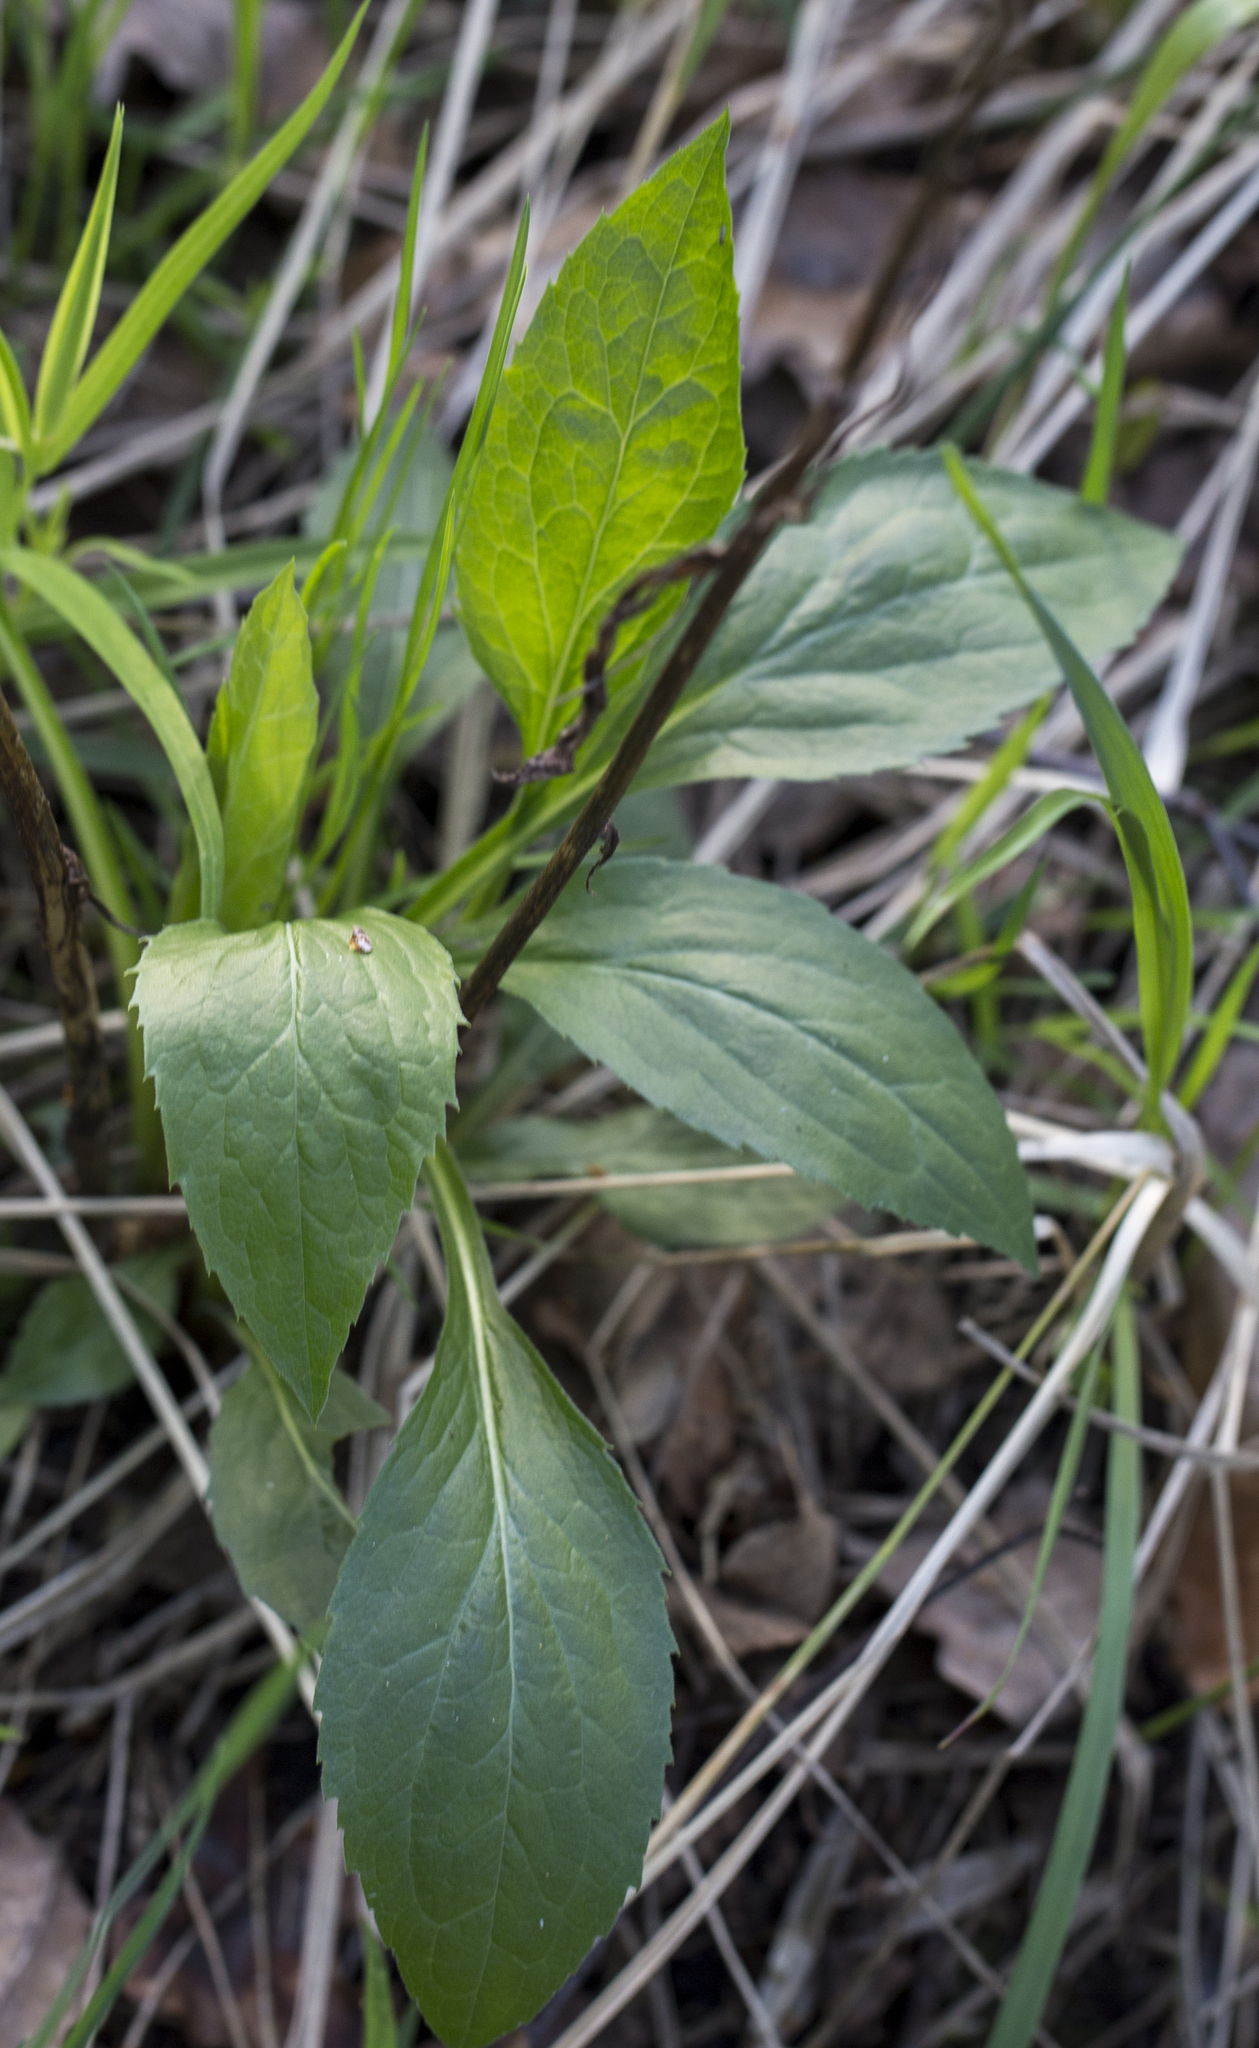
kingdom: Plantae
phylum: Tracheophyta
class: Magnoliopsida
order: Asterales
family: Asteraceae
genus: Solidago
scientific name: Solidago virgaurea
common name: Goldenrod
